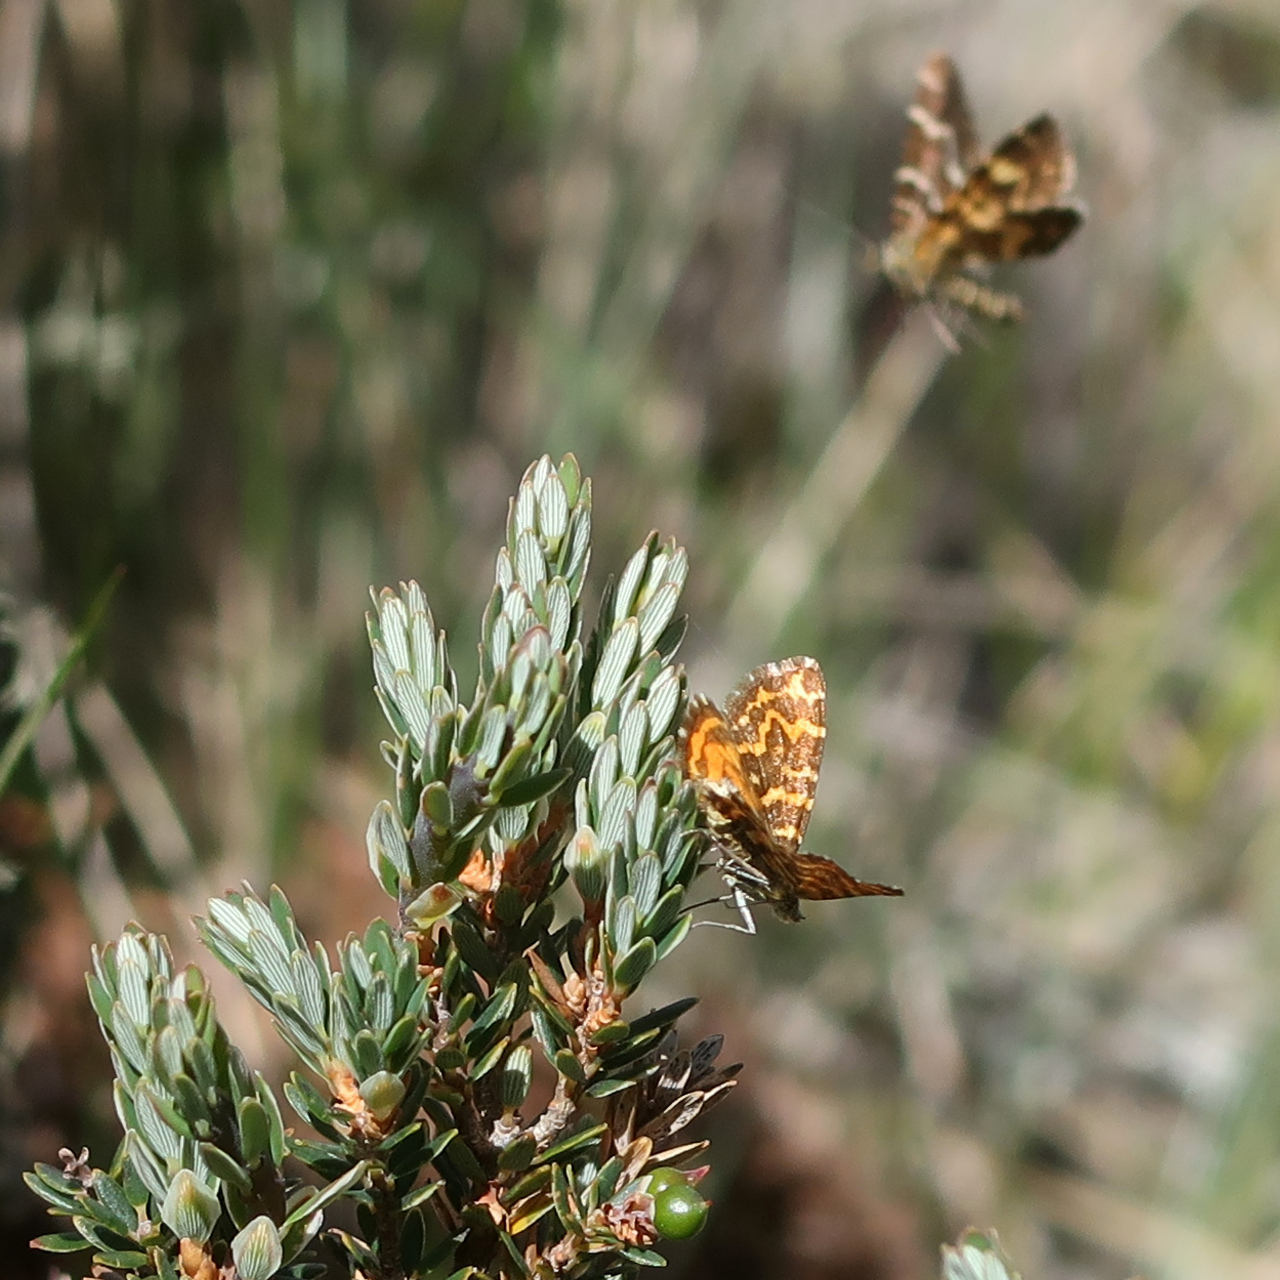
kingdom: Animalia
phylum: Arthropoda
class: Insecta
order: Lepidoptera
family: Geometridae
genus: Chrysolarentia
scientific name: Chrysolarentia chrysocyma
